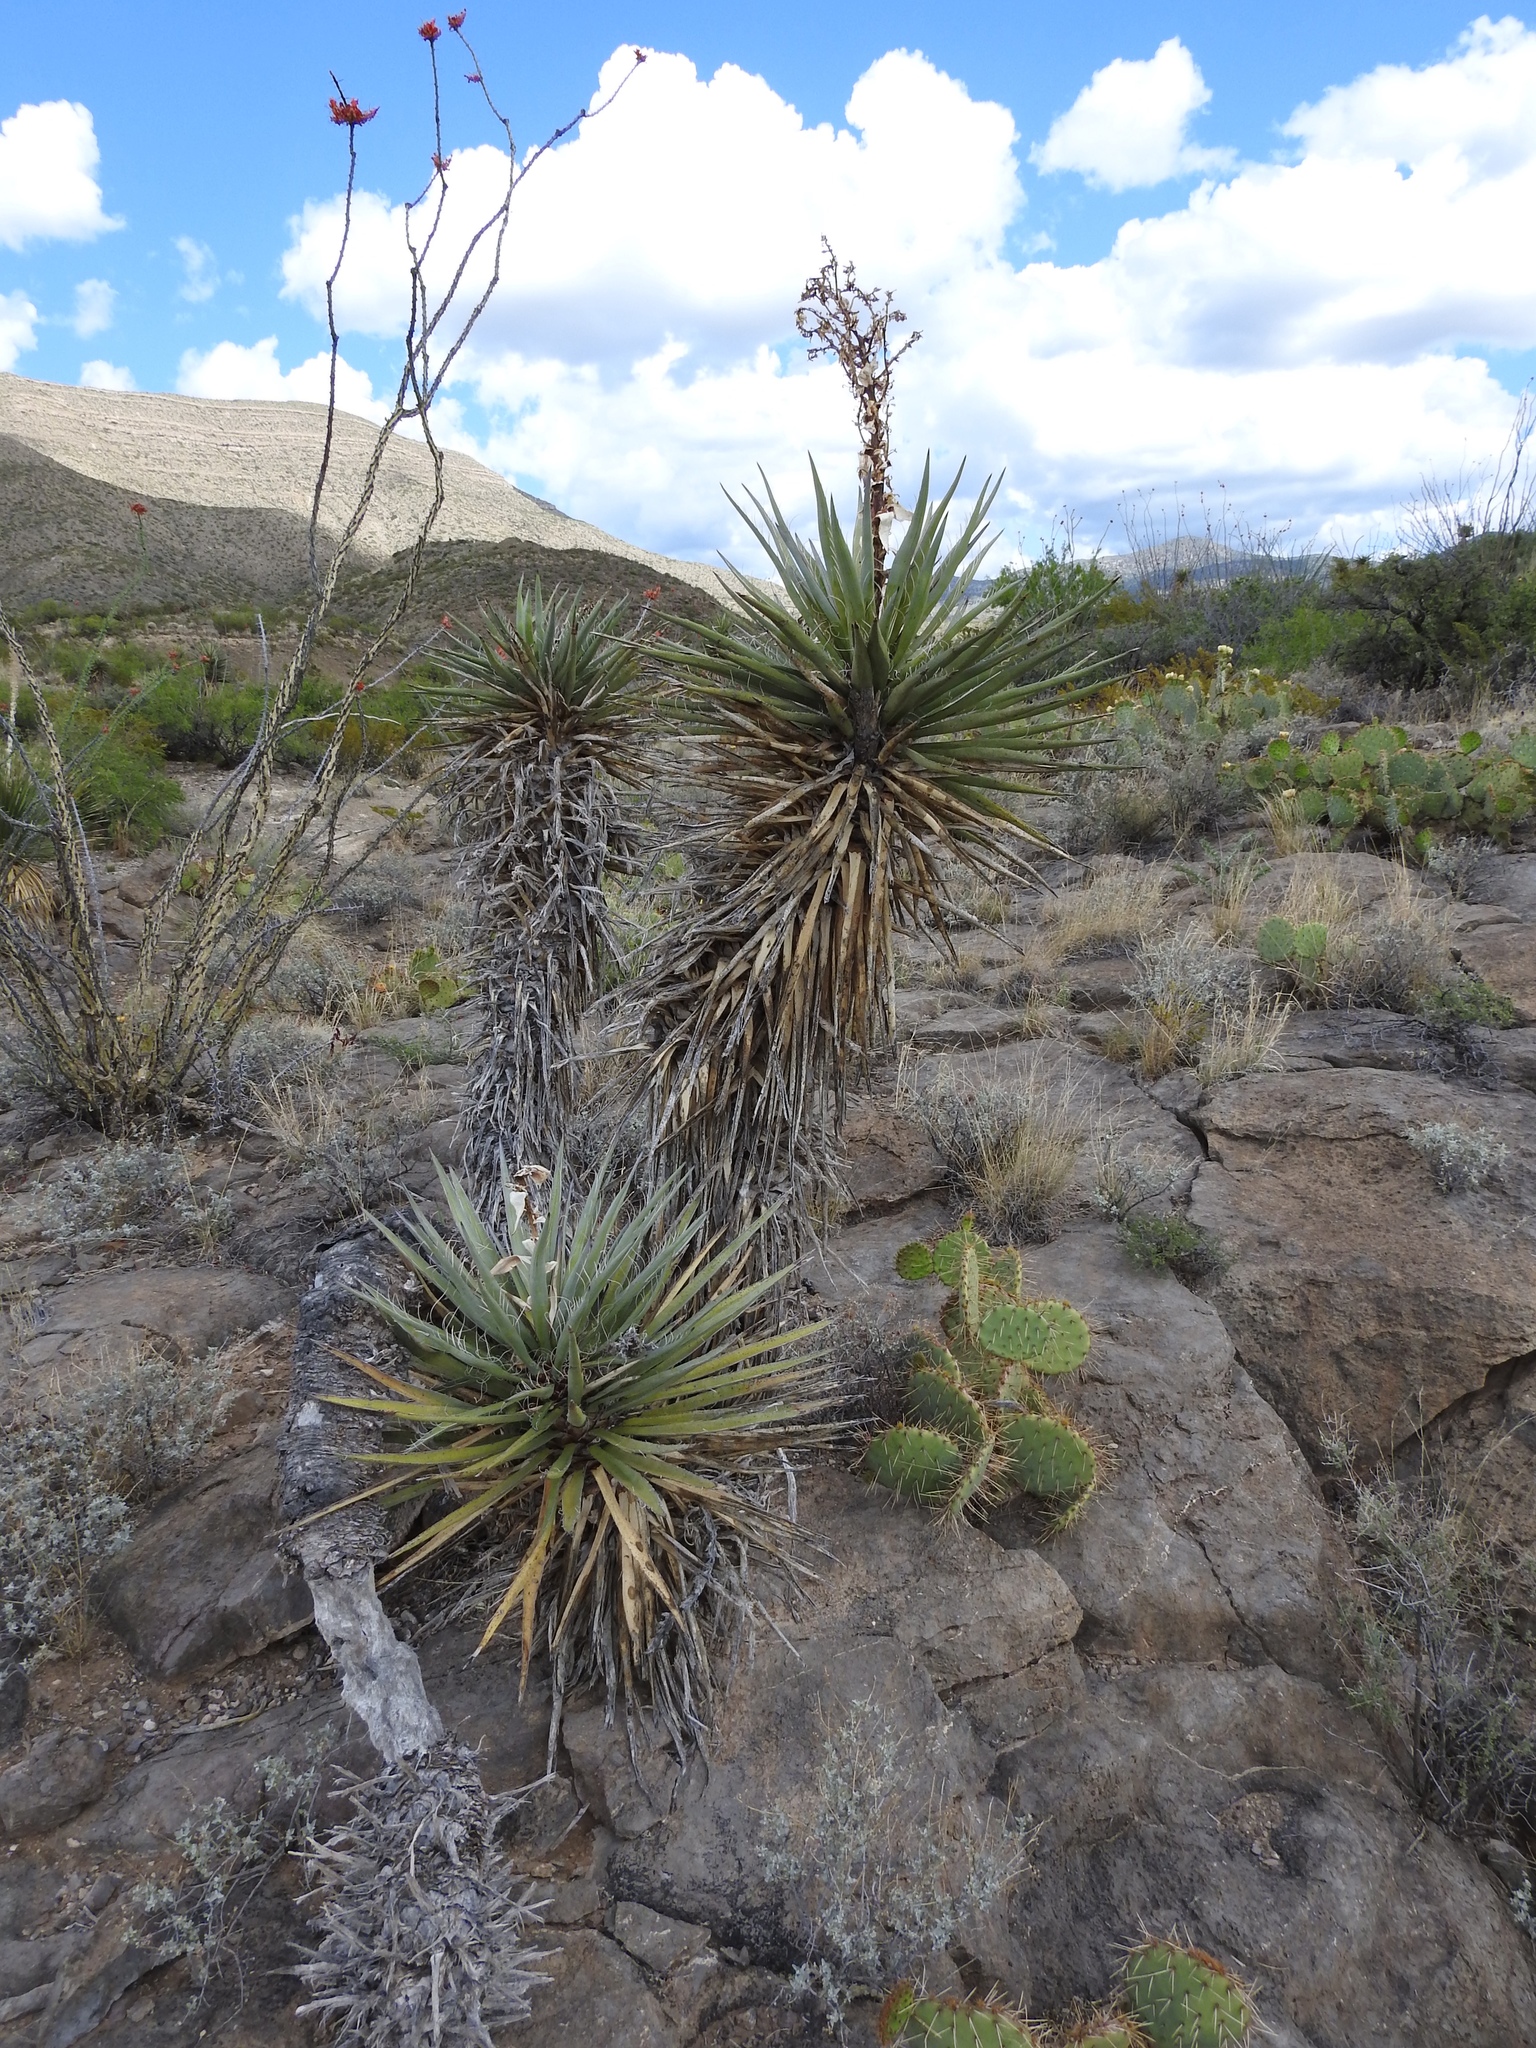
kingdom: Plantae
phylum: Tracheophyta
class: Liliopsida
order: Asparagales
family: Asparagaceae
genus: Yucca
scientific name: Yucca baccata
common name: Banana yucca
